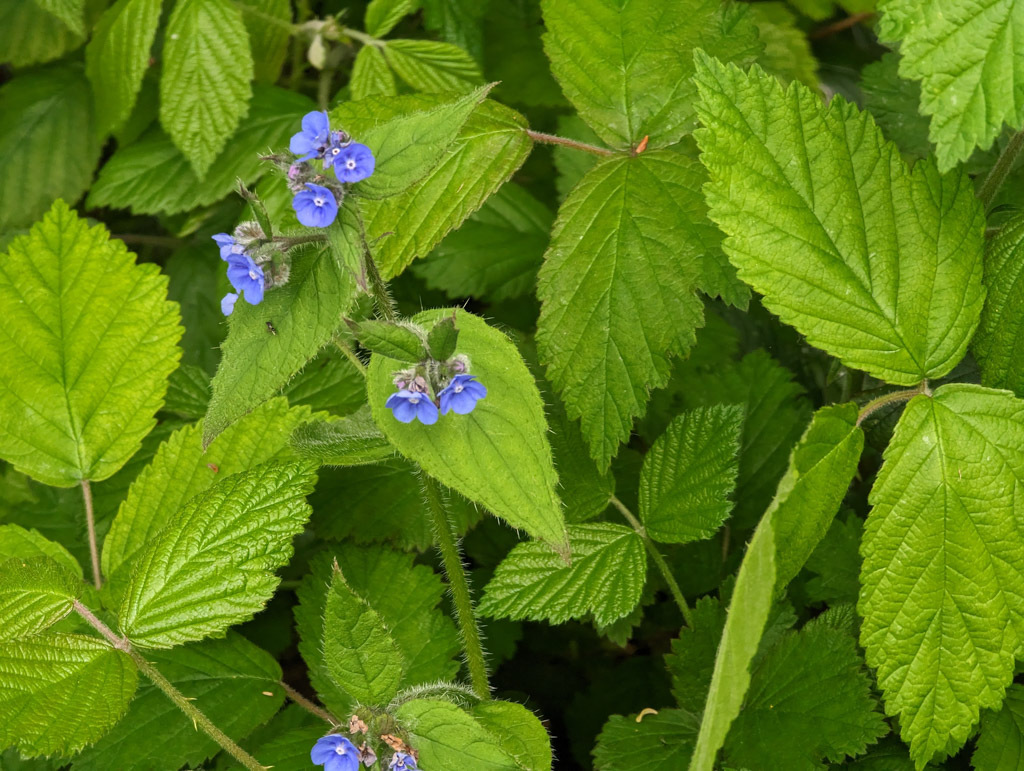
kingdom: Plantae
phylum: Tracheophyta
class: Magnoliopsida
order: Boraginales
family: Boraginaceae
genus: Pentaglottis
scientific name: Pentaglottis sempervirens
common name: Green alkanet
